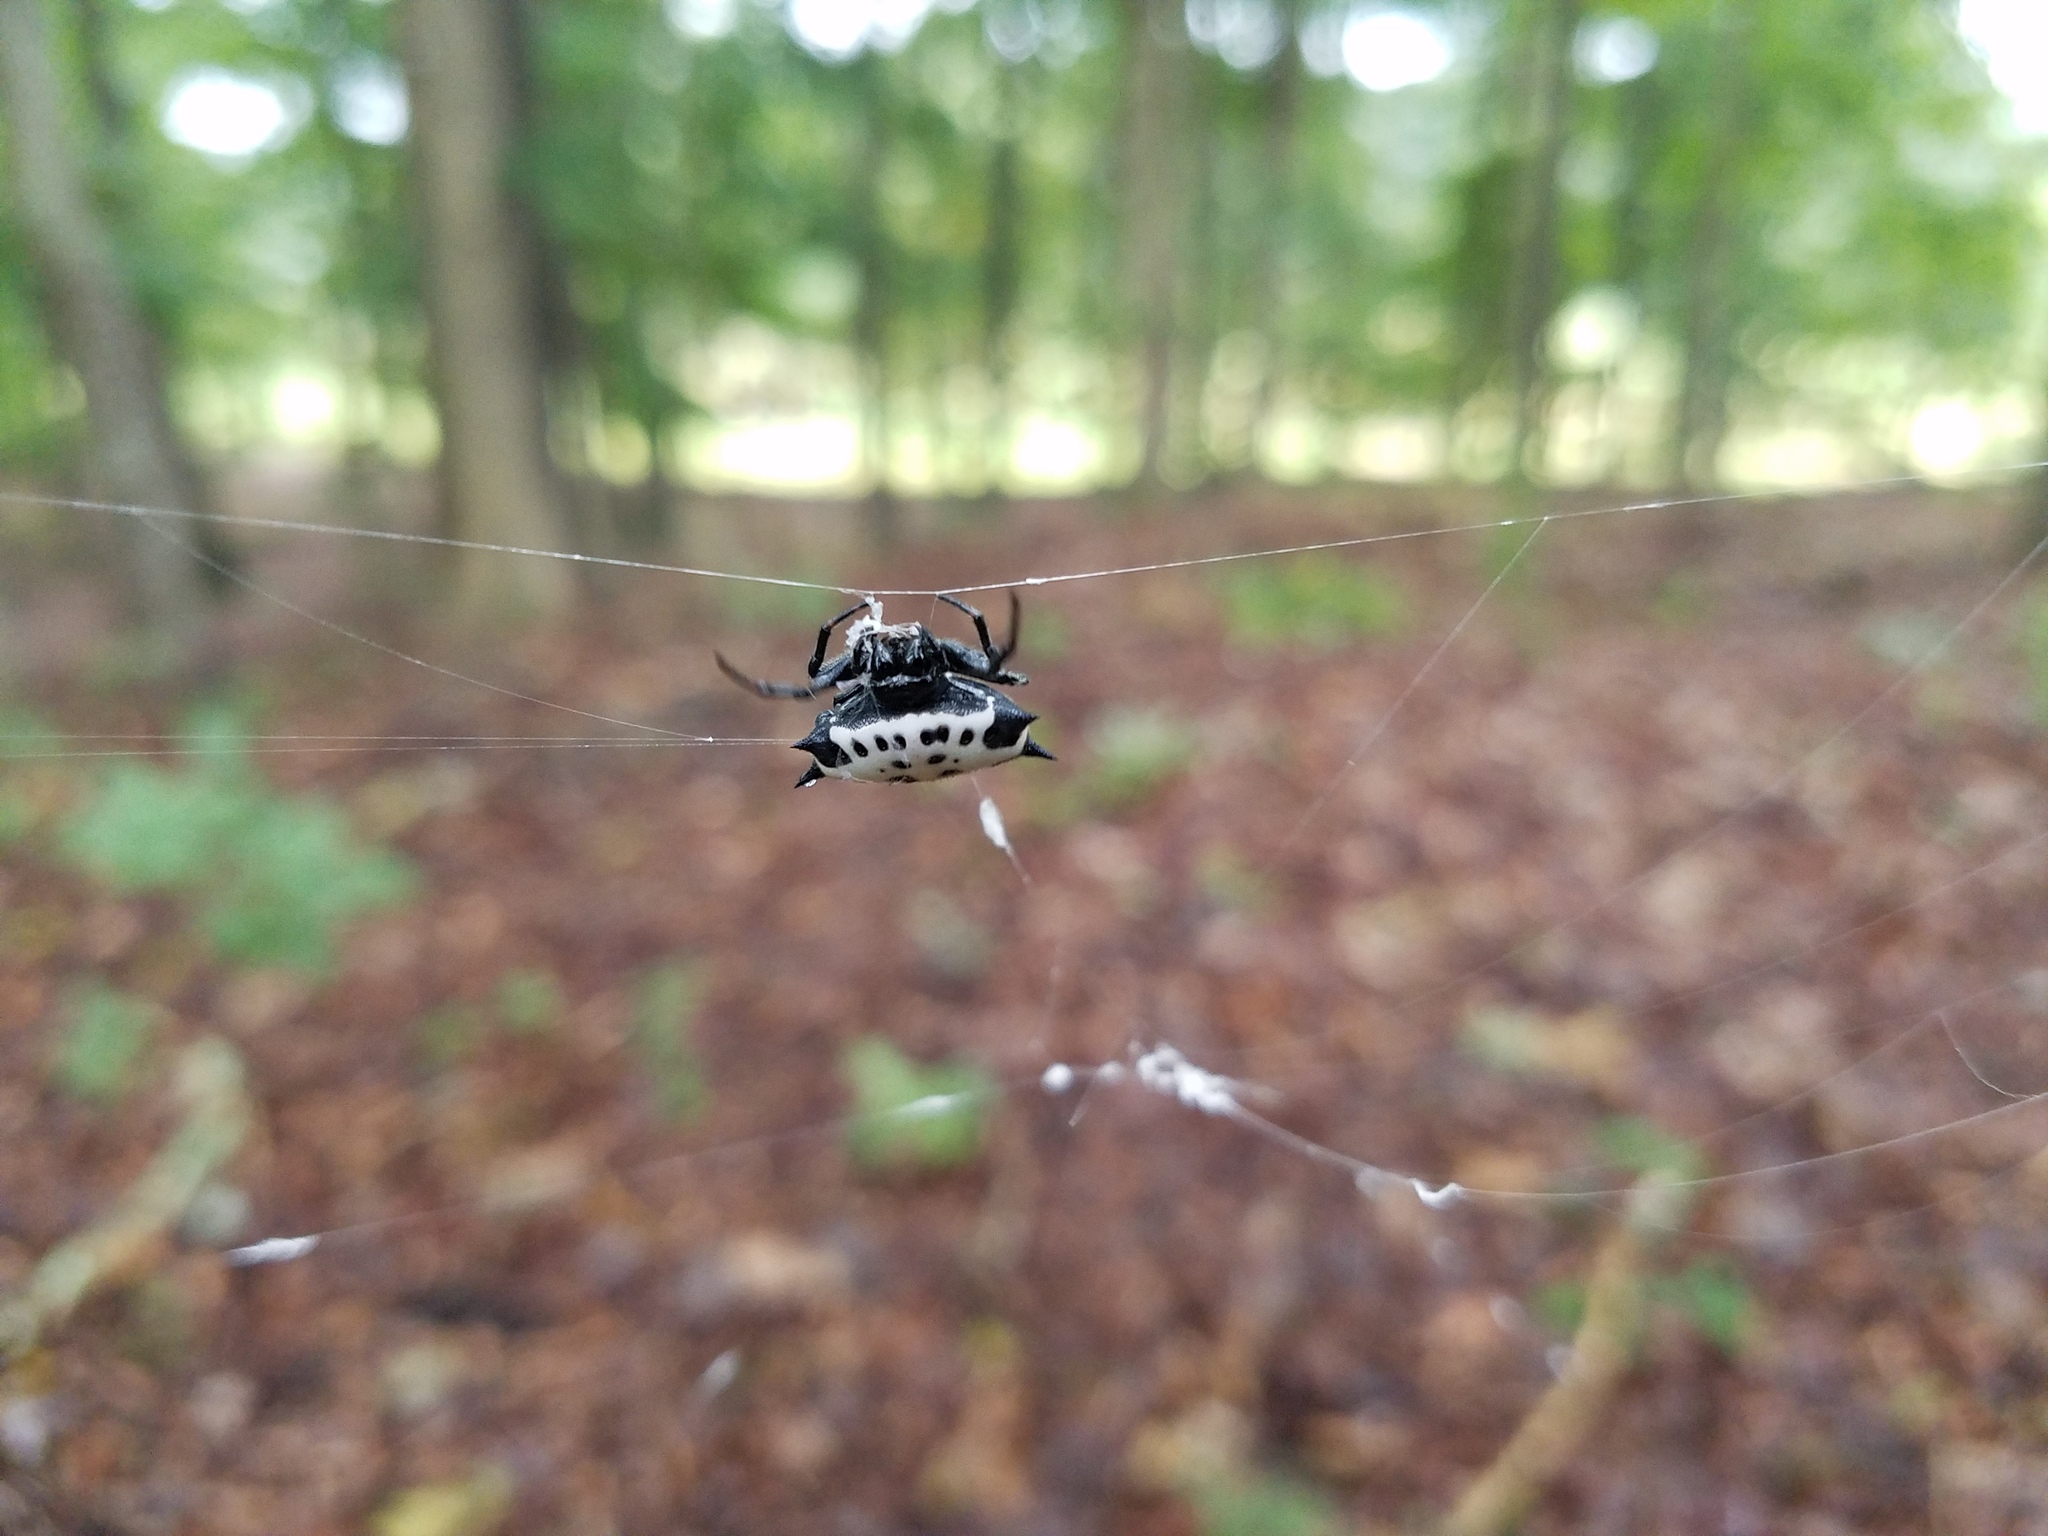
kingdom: Animalia
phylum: Arthropoda
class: Arachnida
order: Araneae
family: Araneidae
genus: Gasteracantha
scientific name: Gasteracantha cancriformis
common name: Orb weavers
